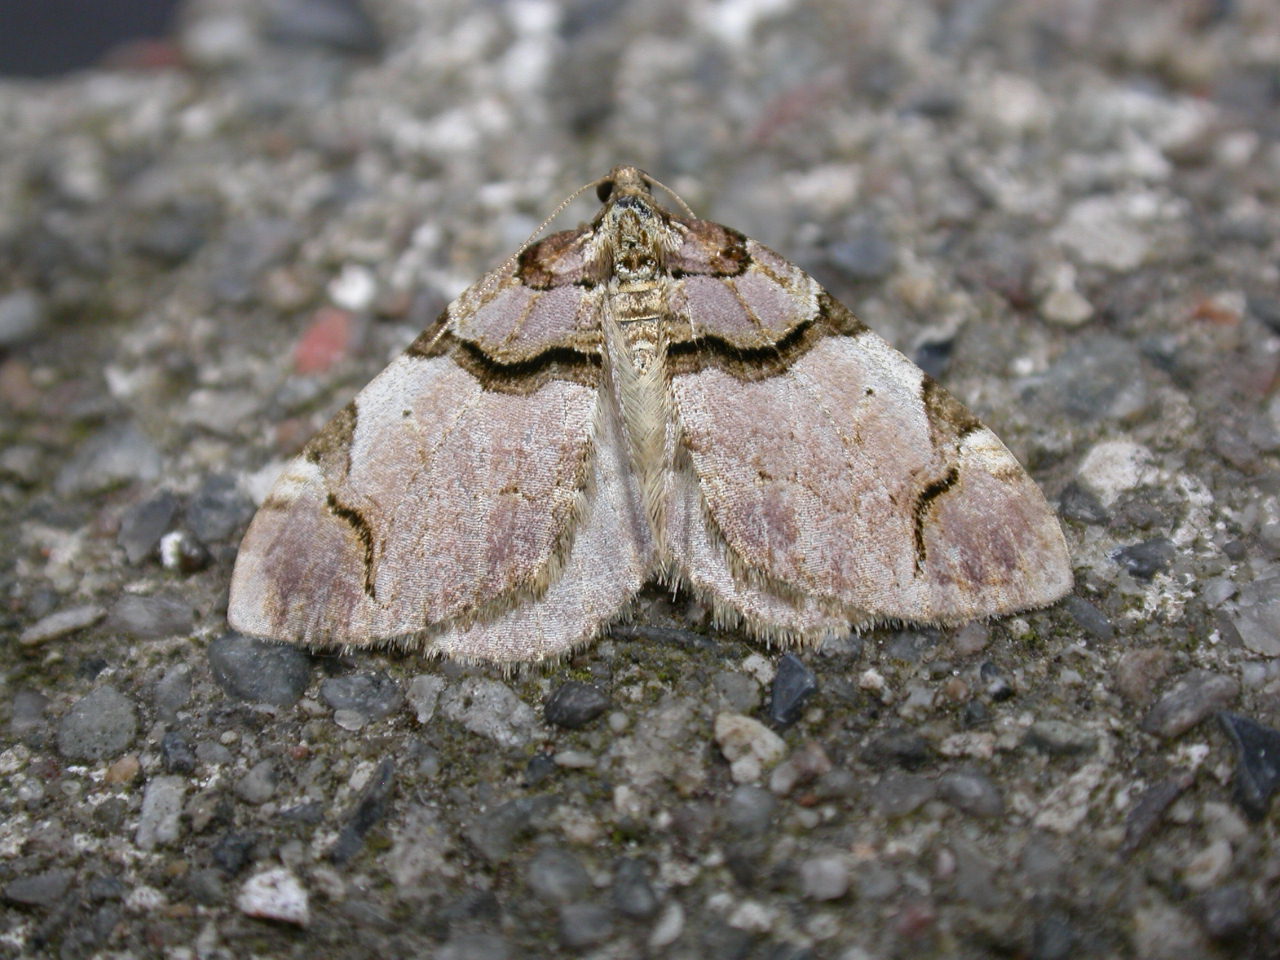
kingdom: Animalia
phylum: Arthropoda
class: Insecta
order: Lepidoptera
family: Geometridae
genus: Anticlea
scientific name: Anticlea derivata
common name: Streamer
